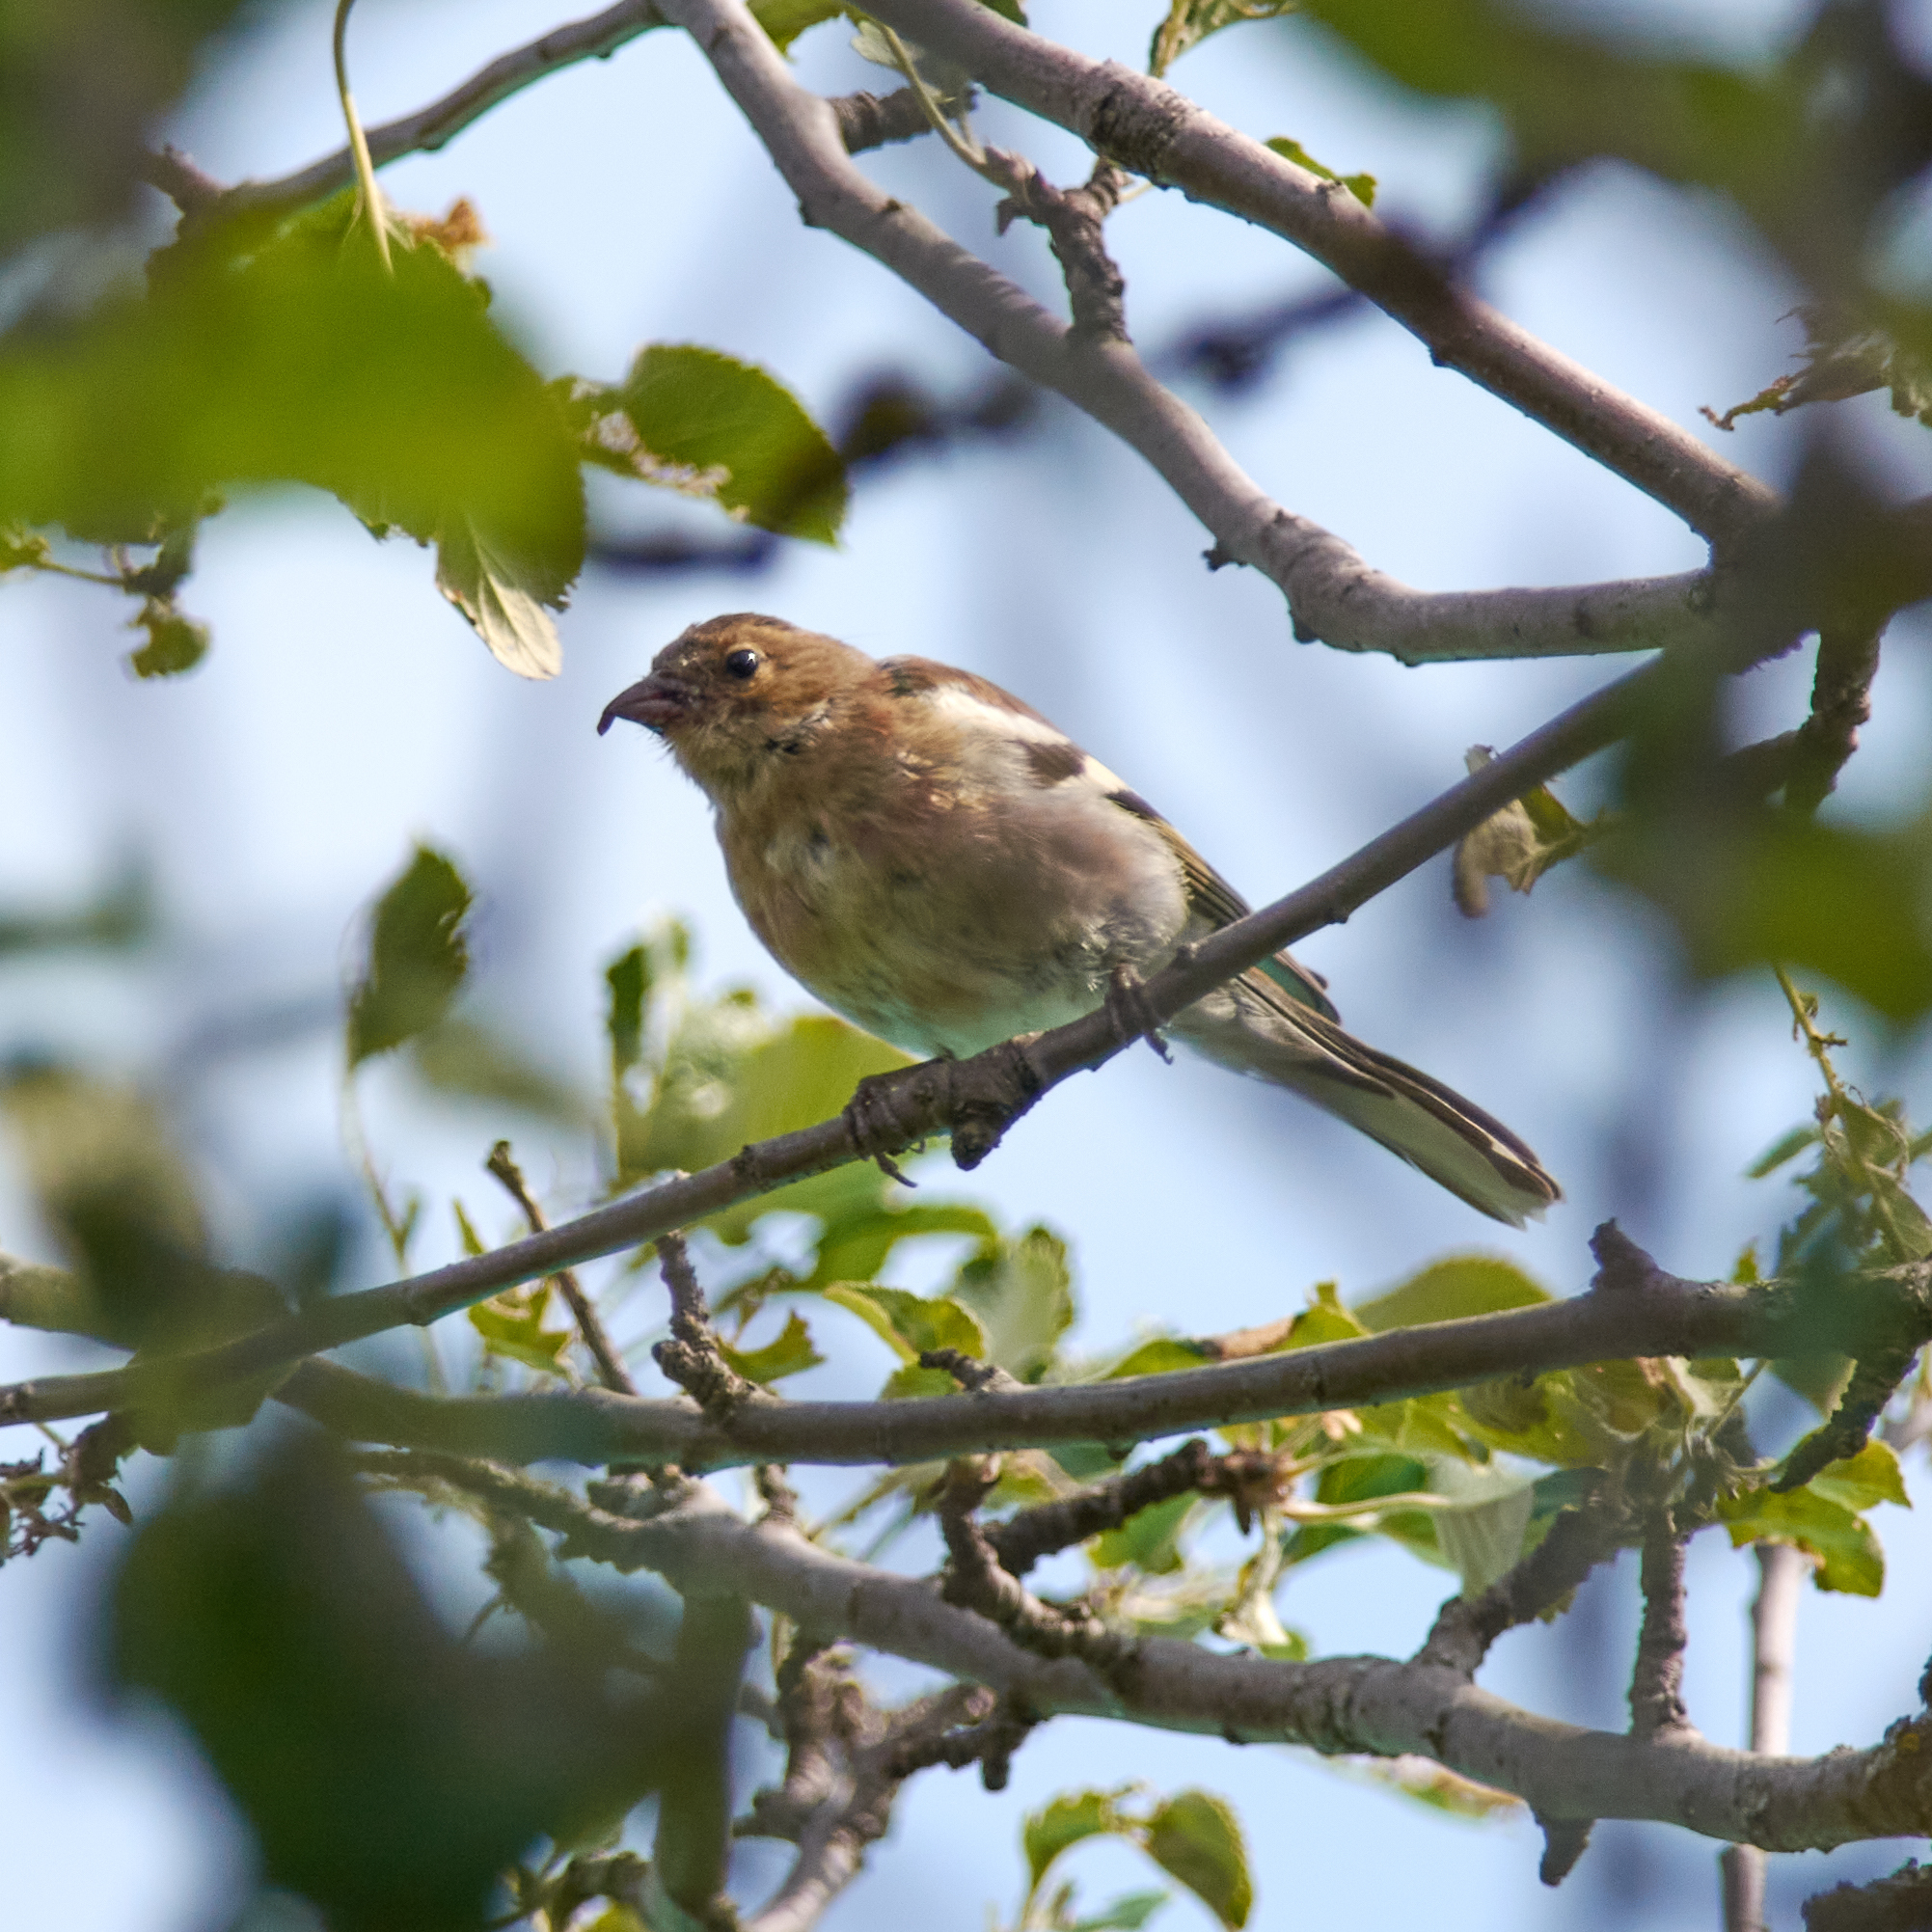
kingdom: Animalia
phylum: Chordata
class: Aves
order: Passeriformes
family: Fringillidae
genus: Fringilla
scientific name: Fringilla coelebs
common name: Common chaffinch
